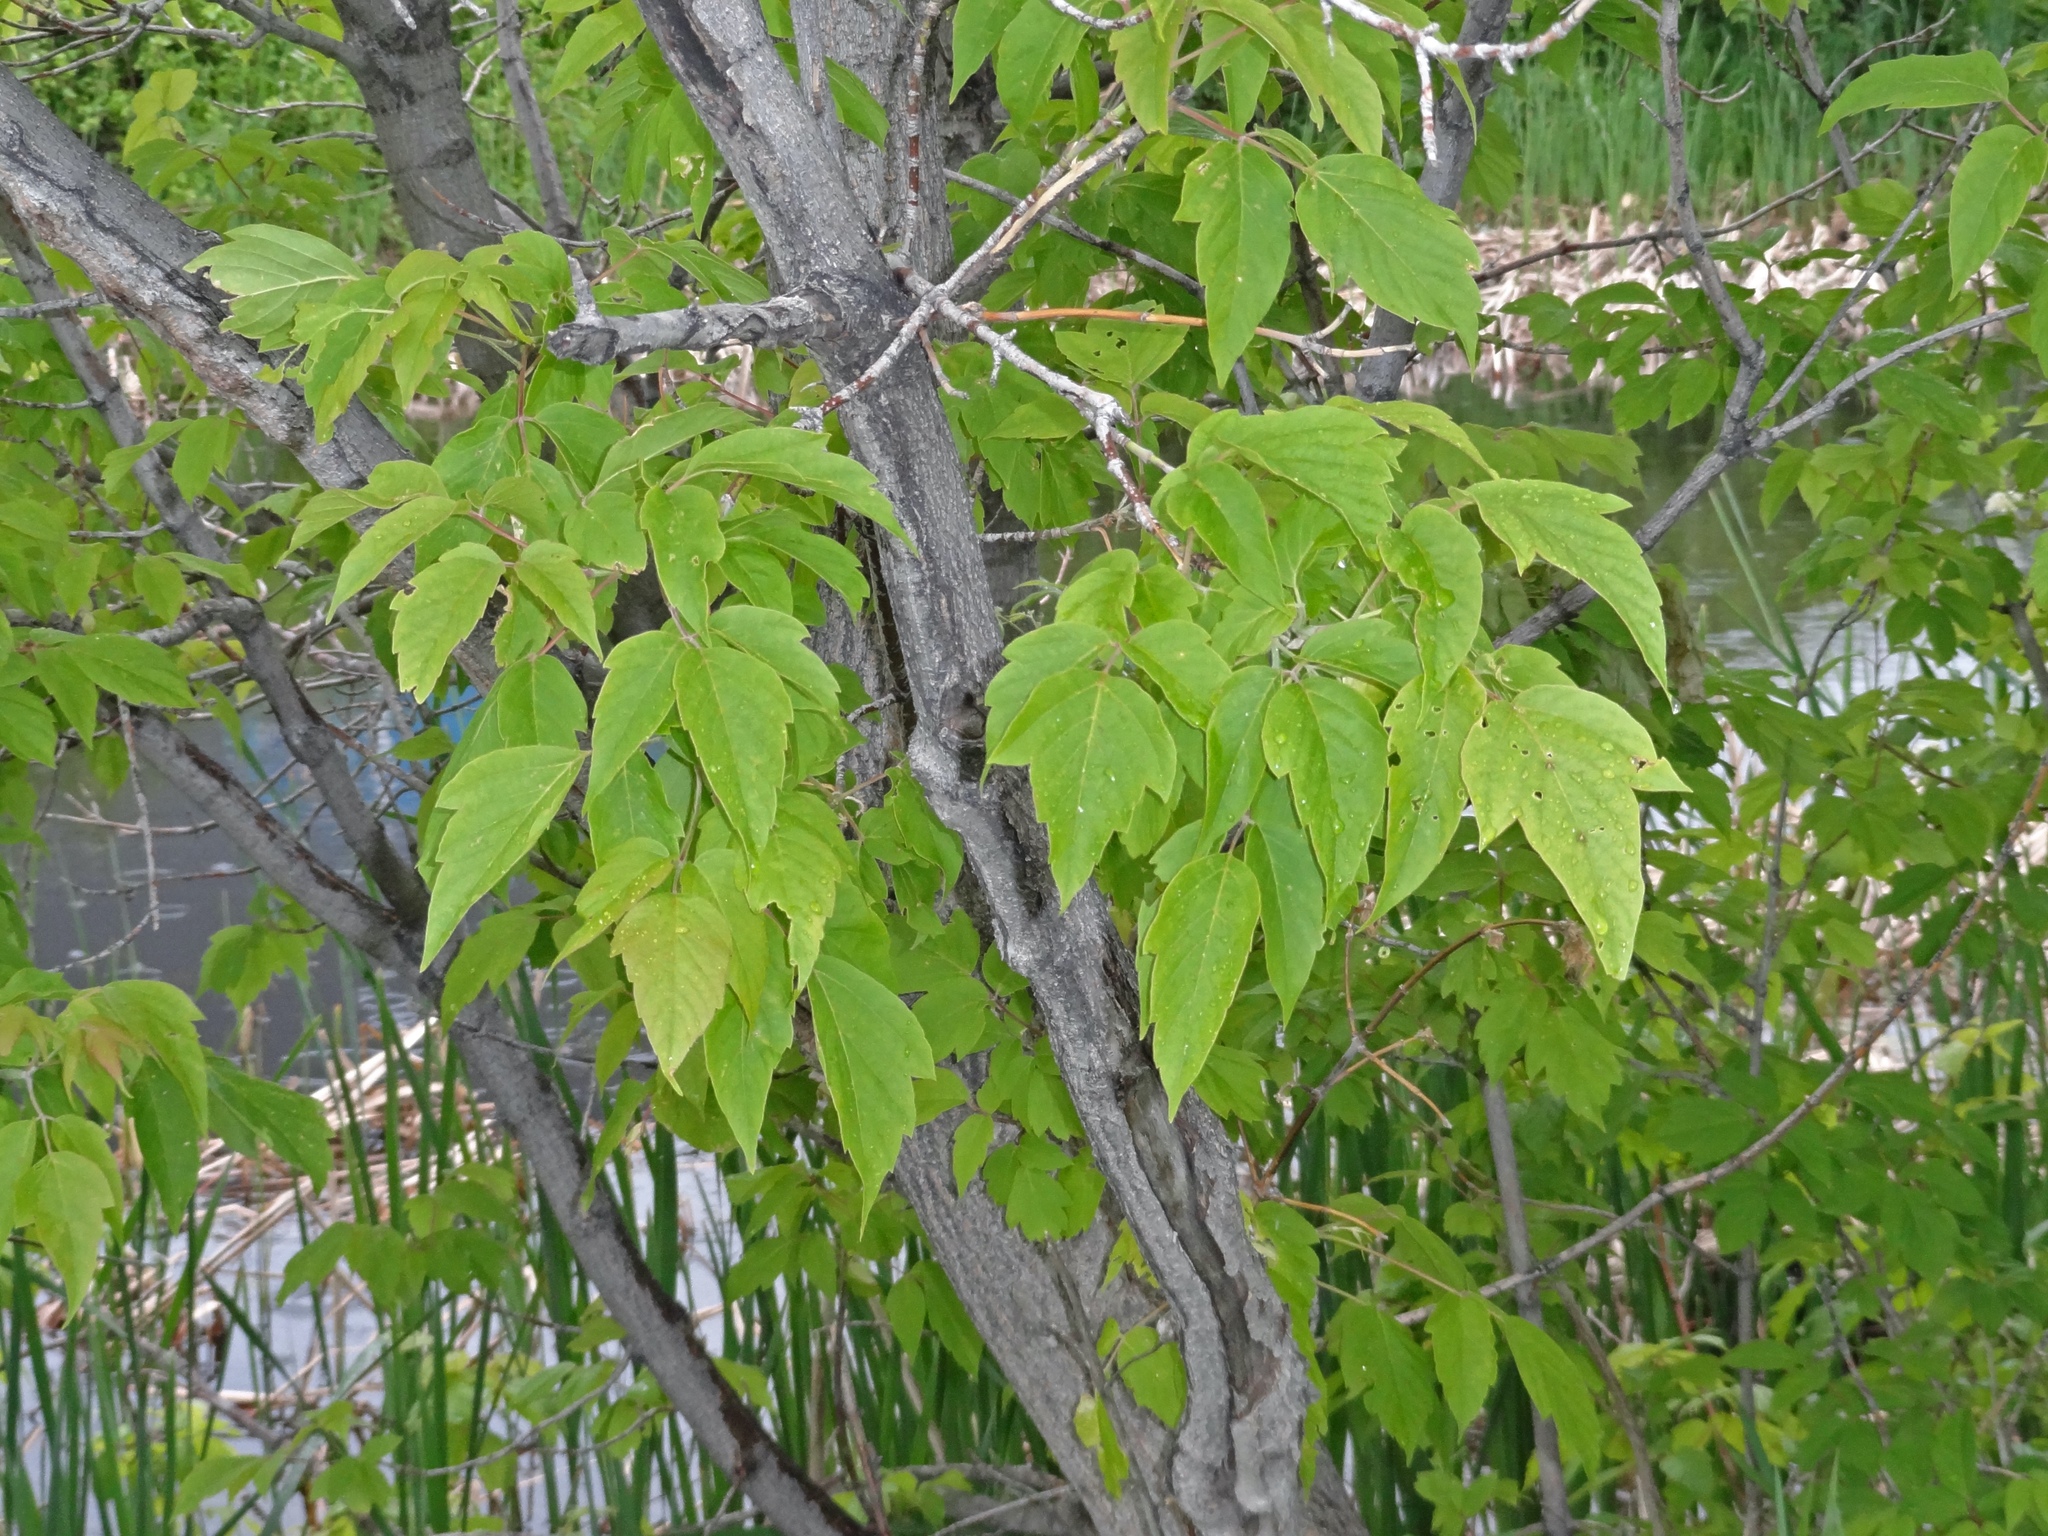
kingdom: Plantae
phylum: Tracheophyta
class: Magnoliopsida
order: Sapindales
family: Sapindaceae
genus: Acer
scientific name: Acer negundo
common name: Ashleaf maple
